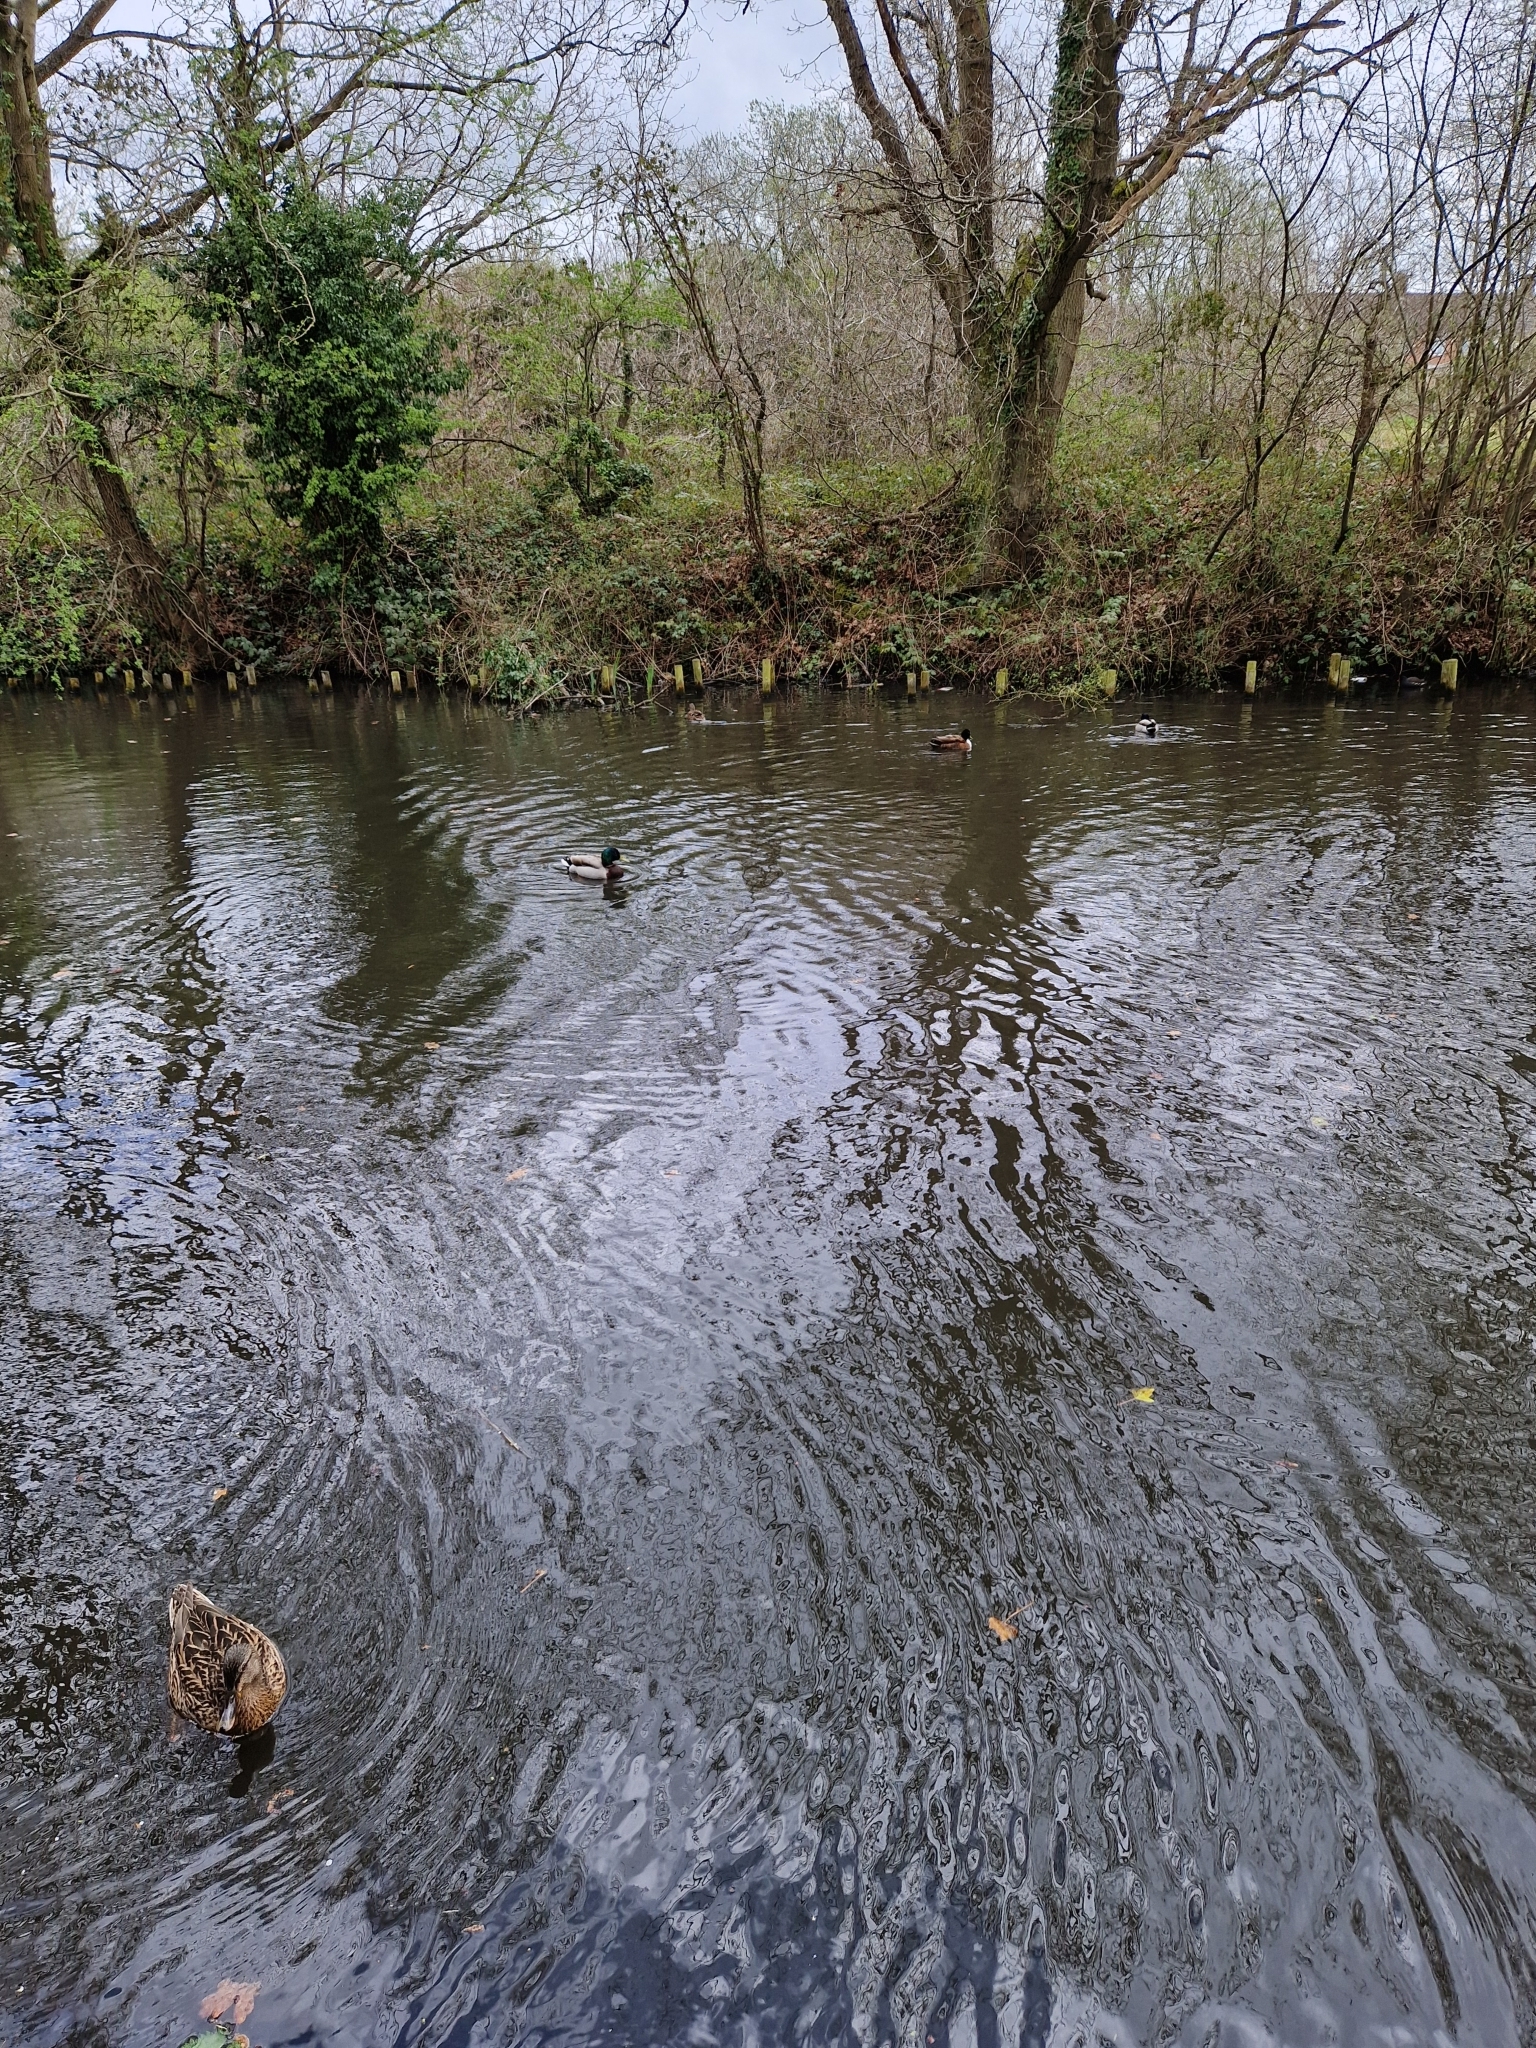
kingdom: Animalia
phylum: Chordata
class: Aves
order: Anseriformes
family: Anatidae
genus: Anas
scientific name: Anas platyrhynchos
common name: Mallard
